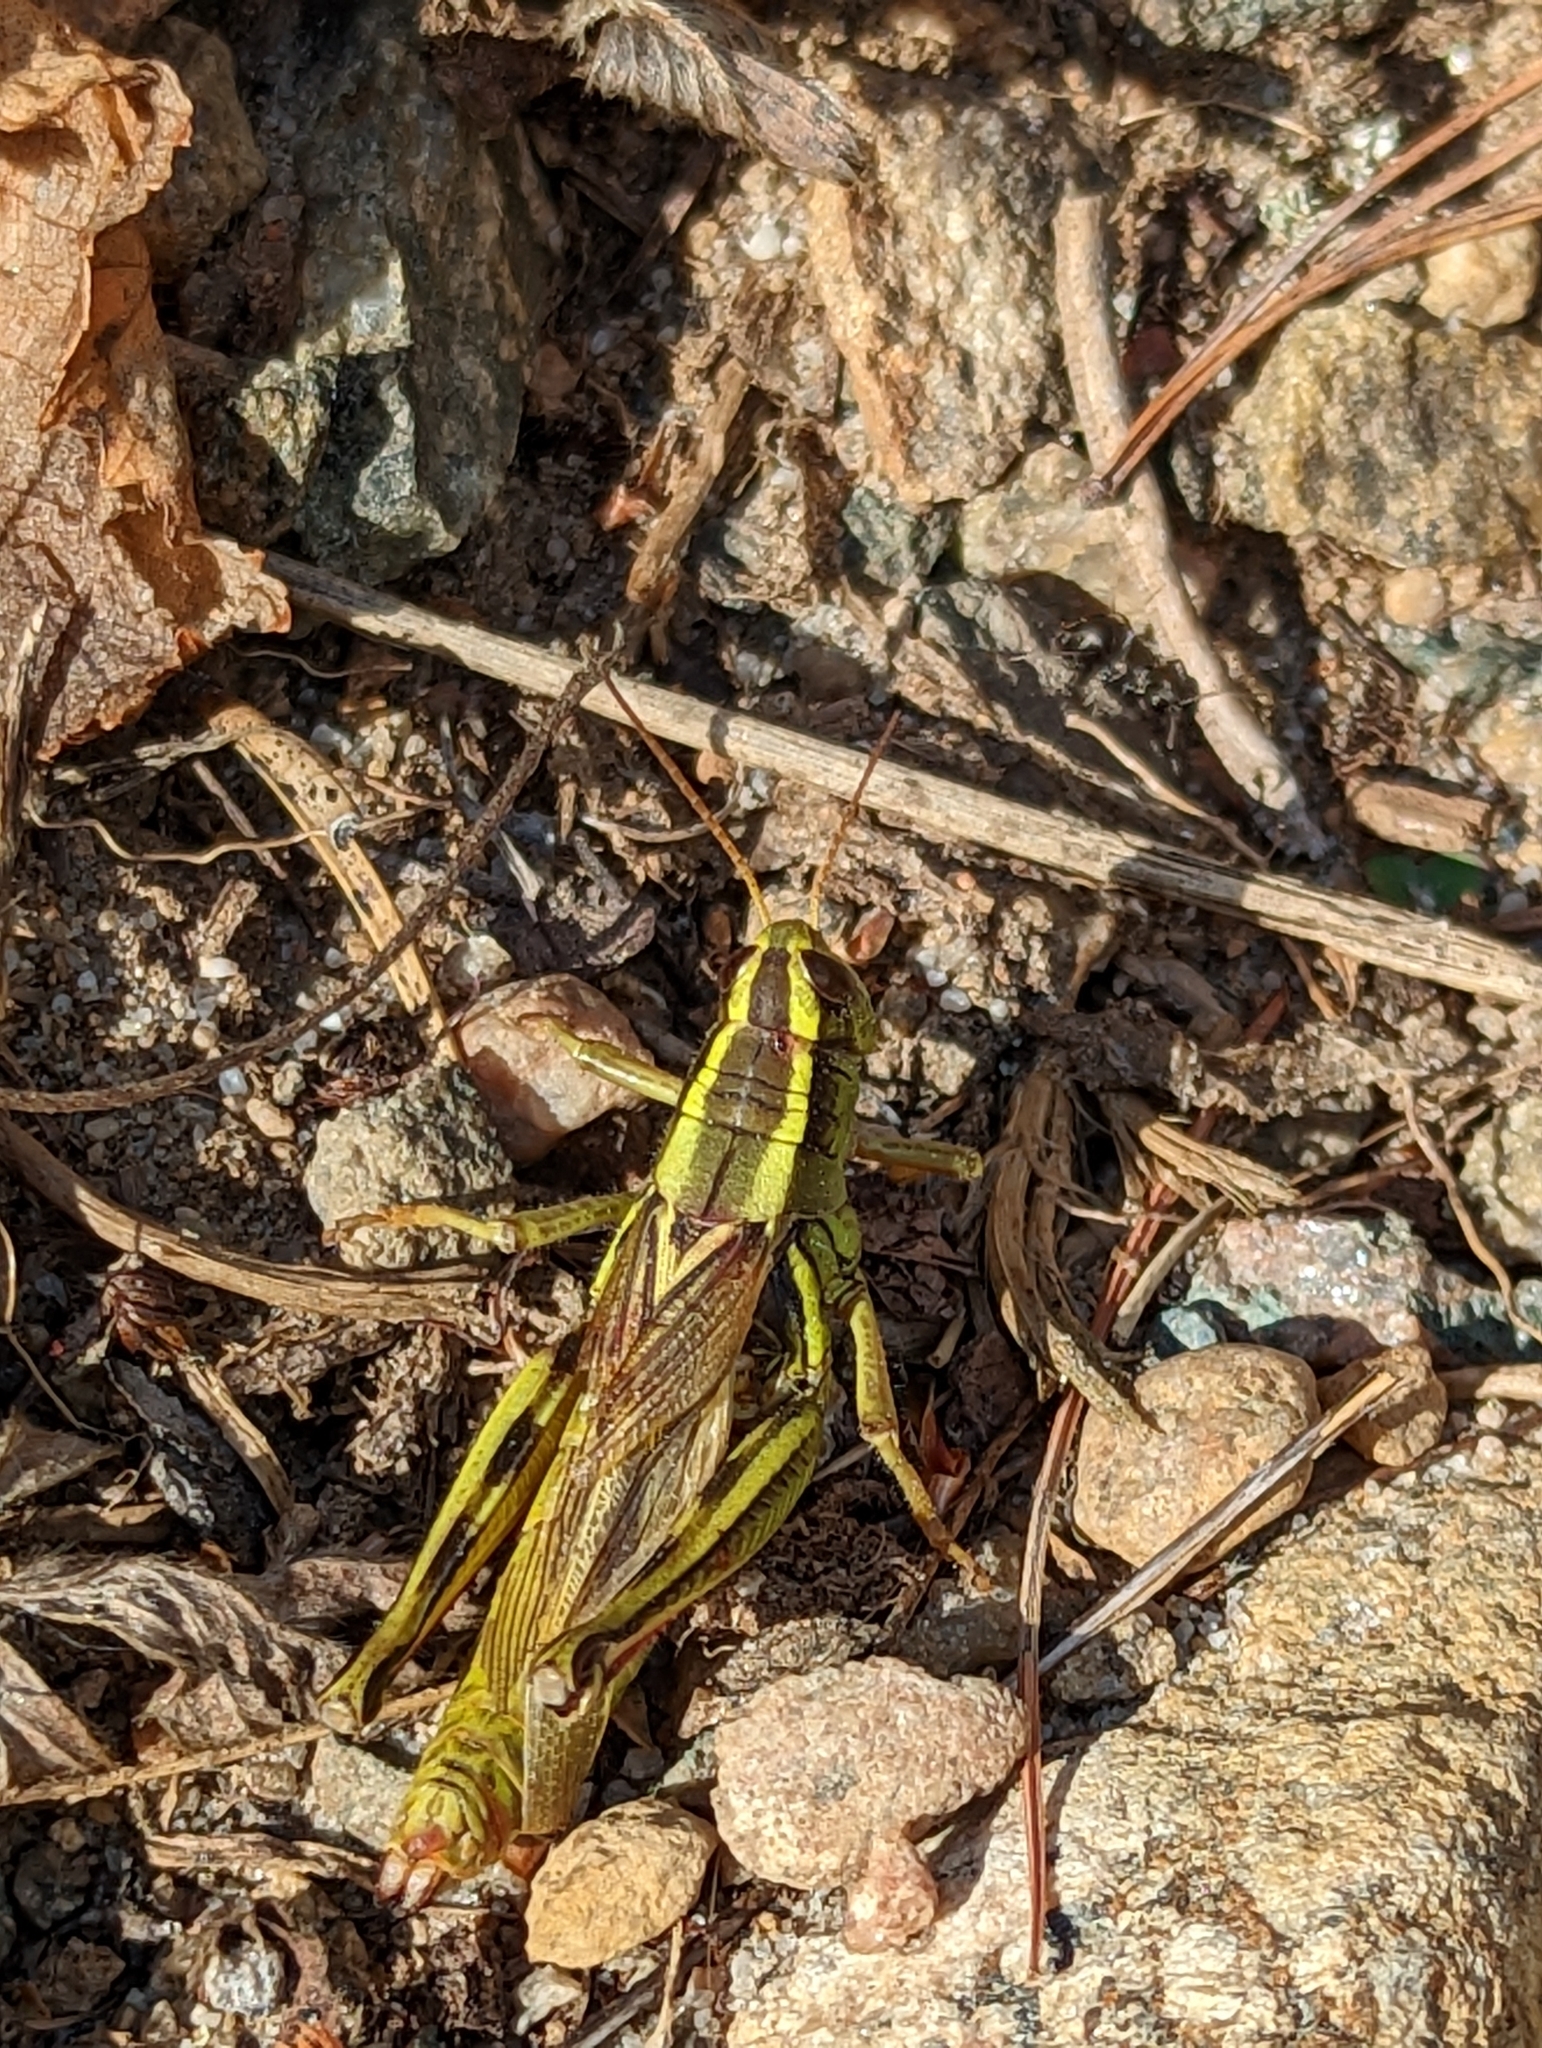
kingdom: Animalia
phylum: Arthropoda
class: Insecta
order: Orthoptera
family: Acrididae
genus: Melanoplus
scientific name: Melanoplus bivittatus
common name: Two-striped grasshopper
